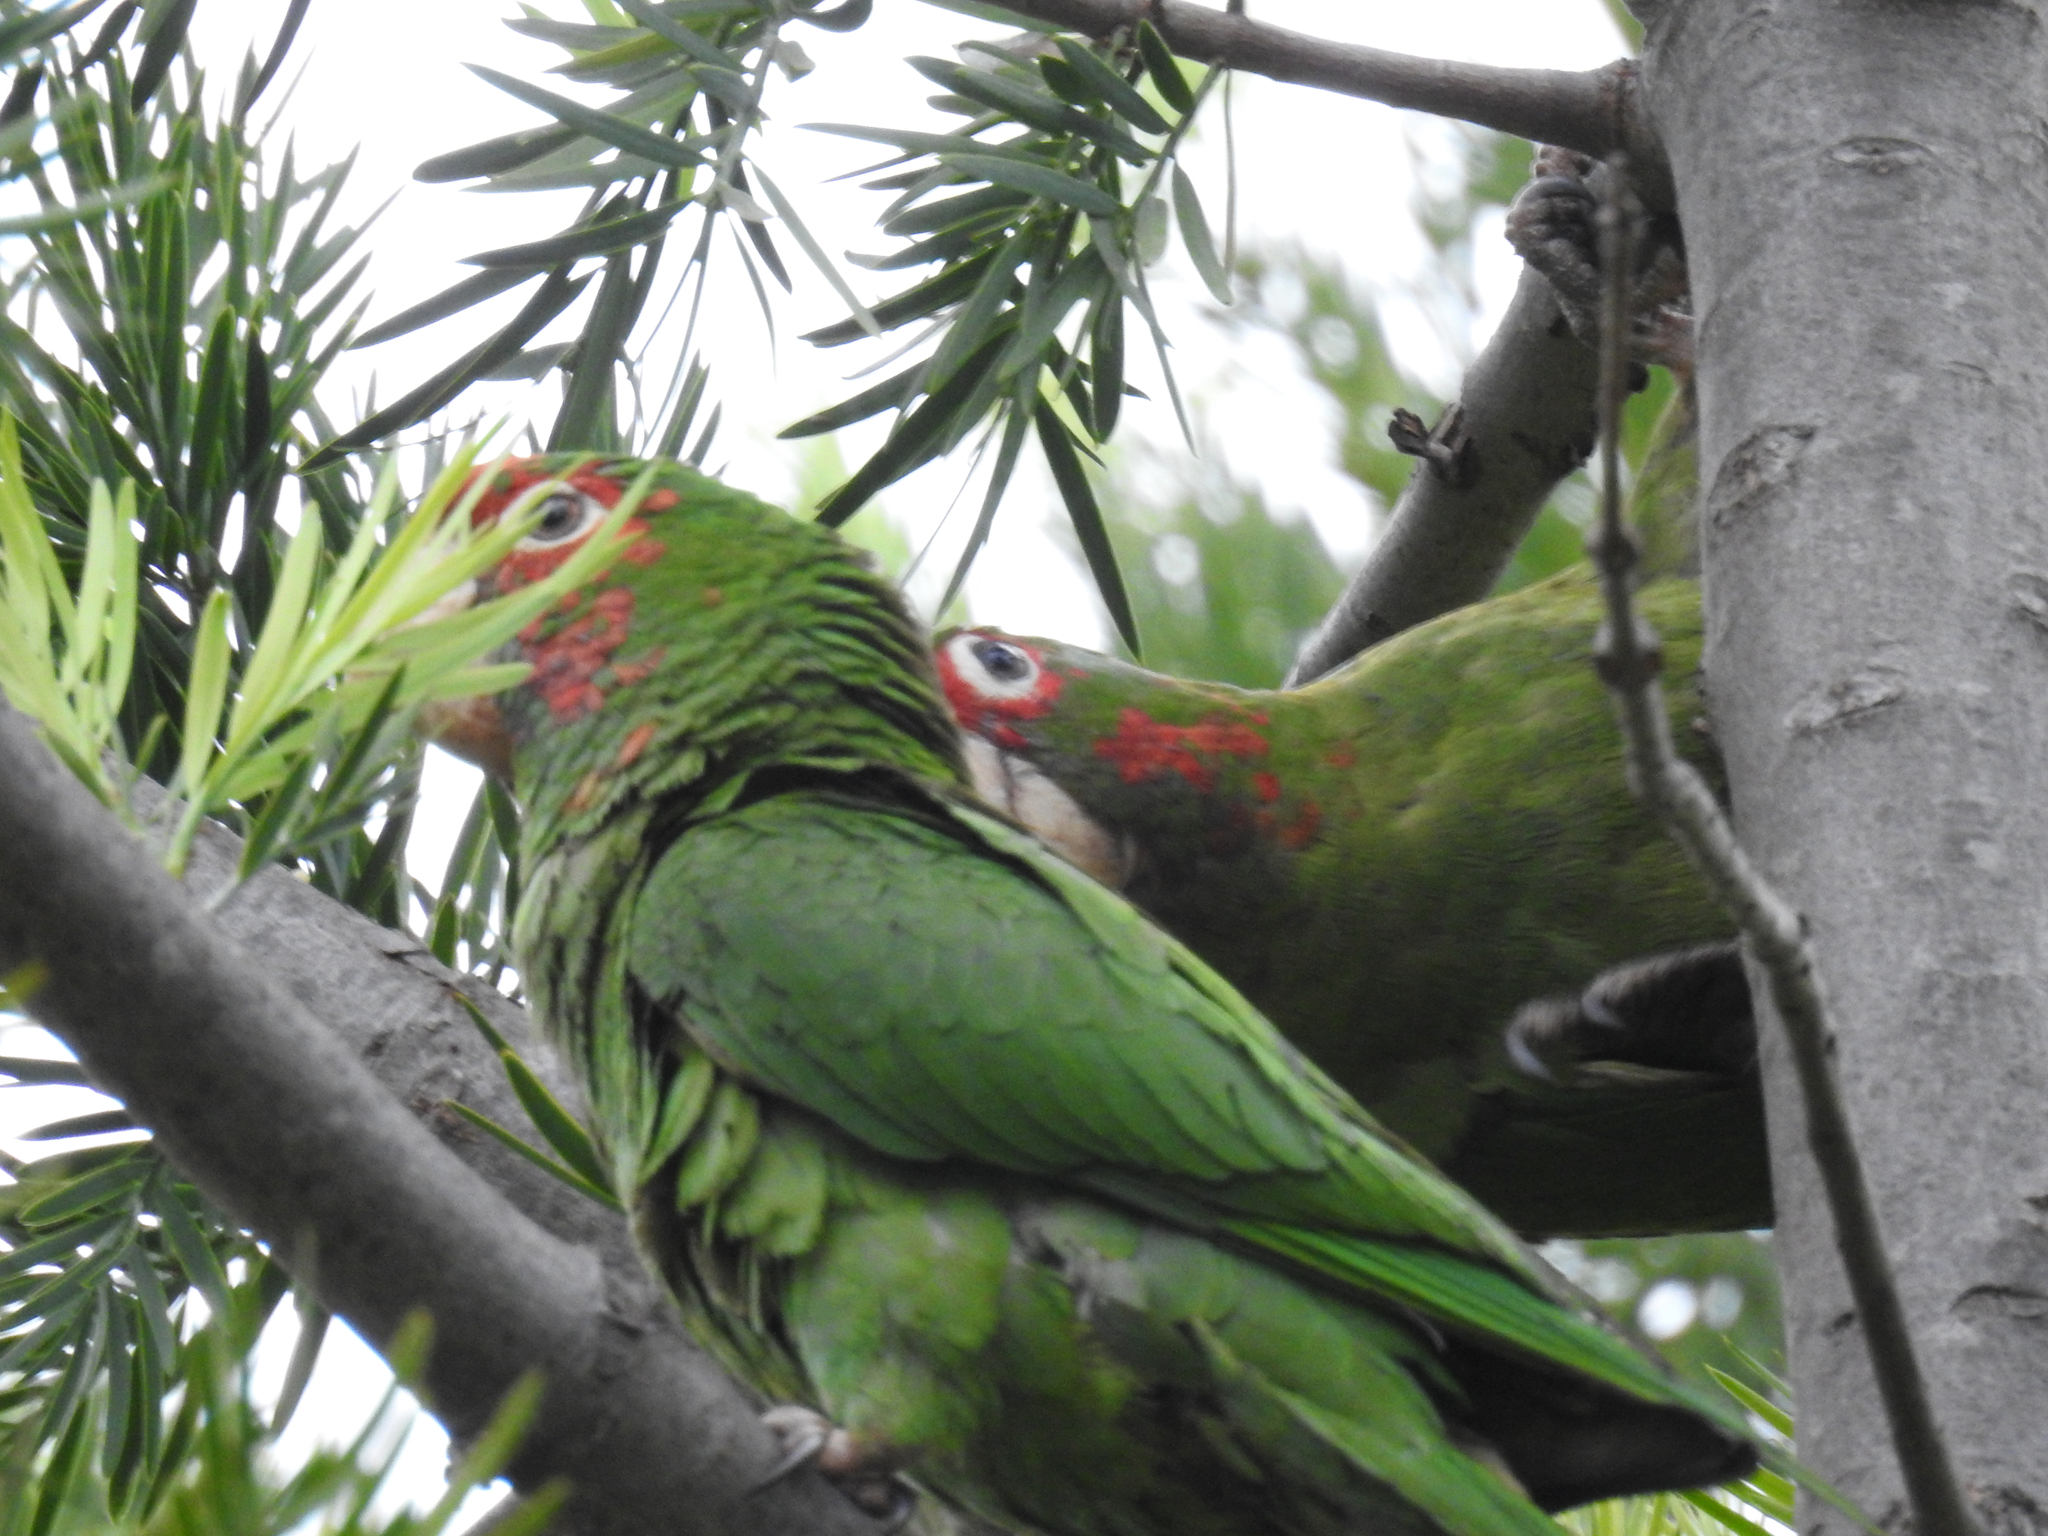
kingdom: Animalia
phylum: Chordata
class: Aves
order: Psittaciformes
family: Psittacidae
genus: Aratinga
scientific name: Aratinga mitrata
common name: Mitred parakeet
